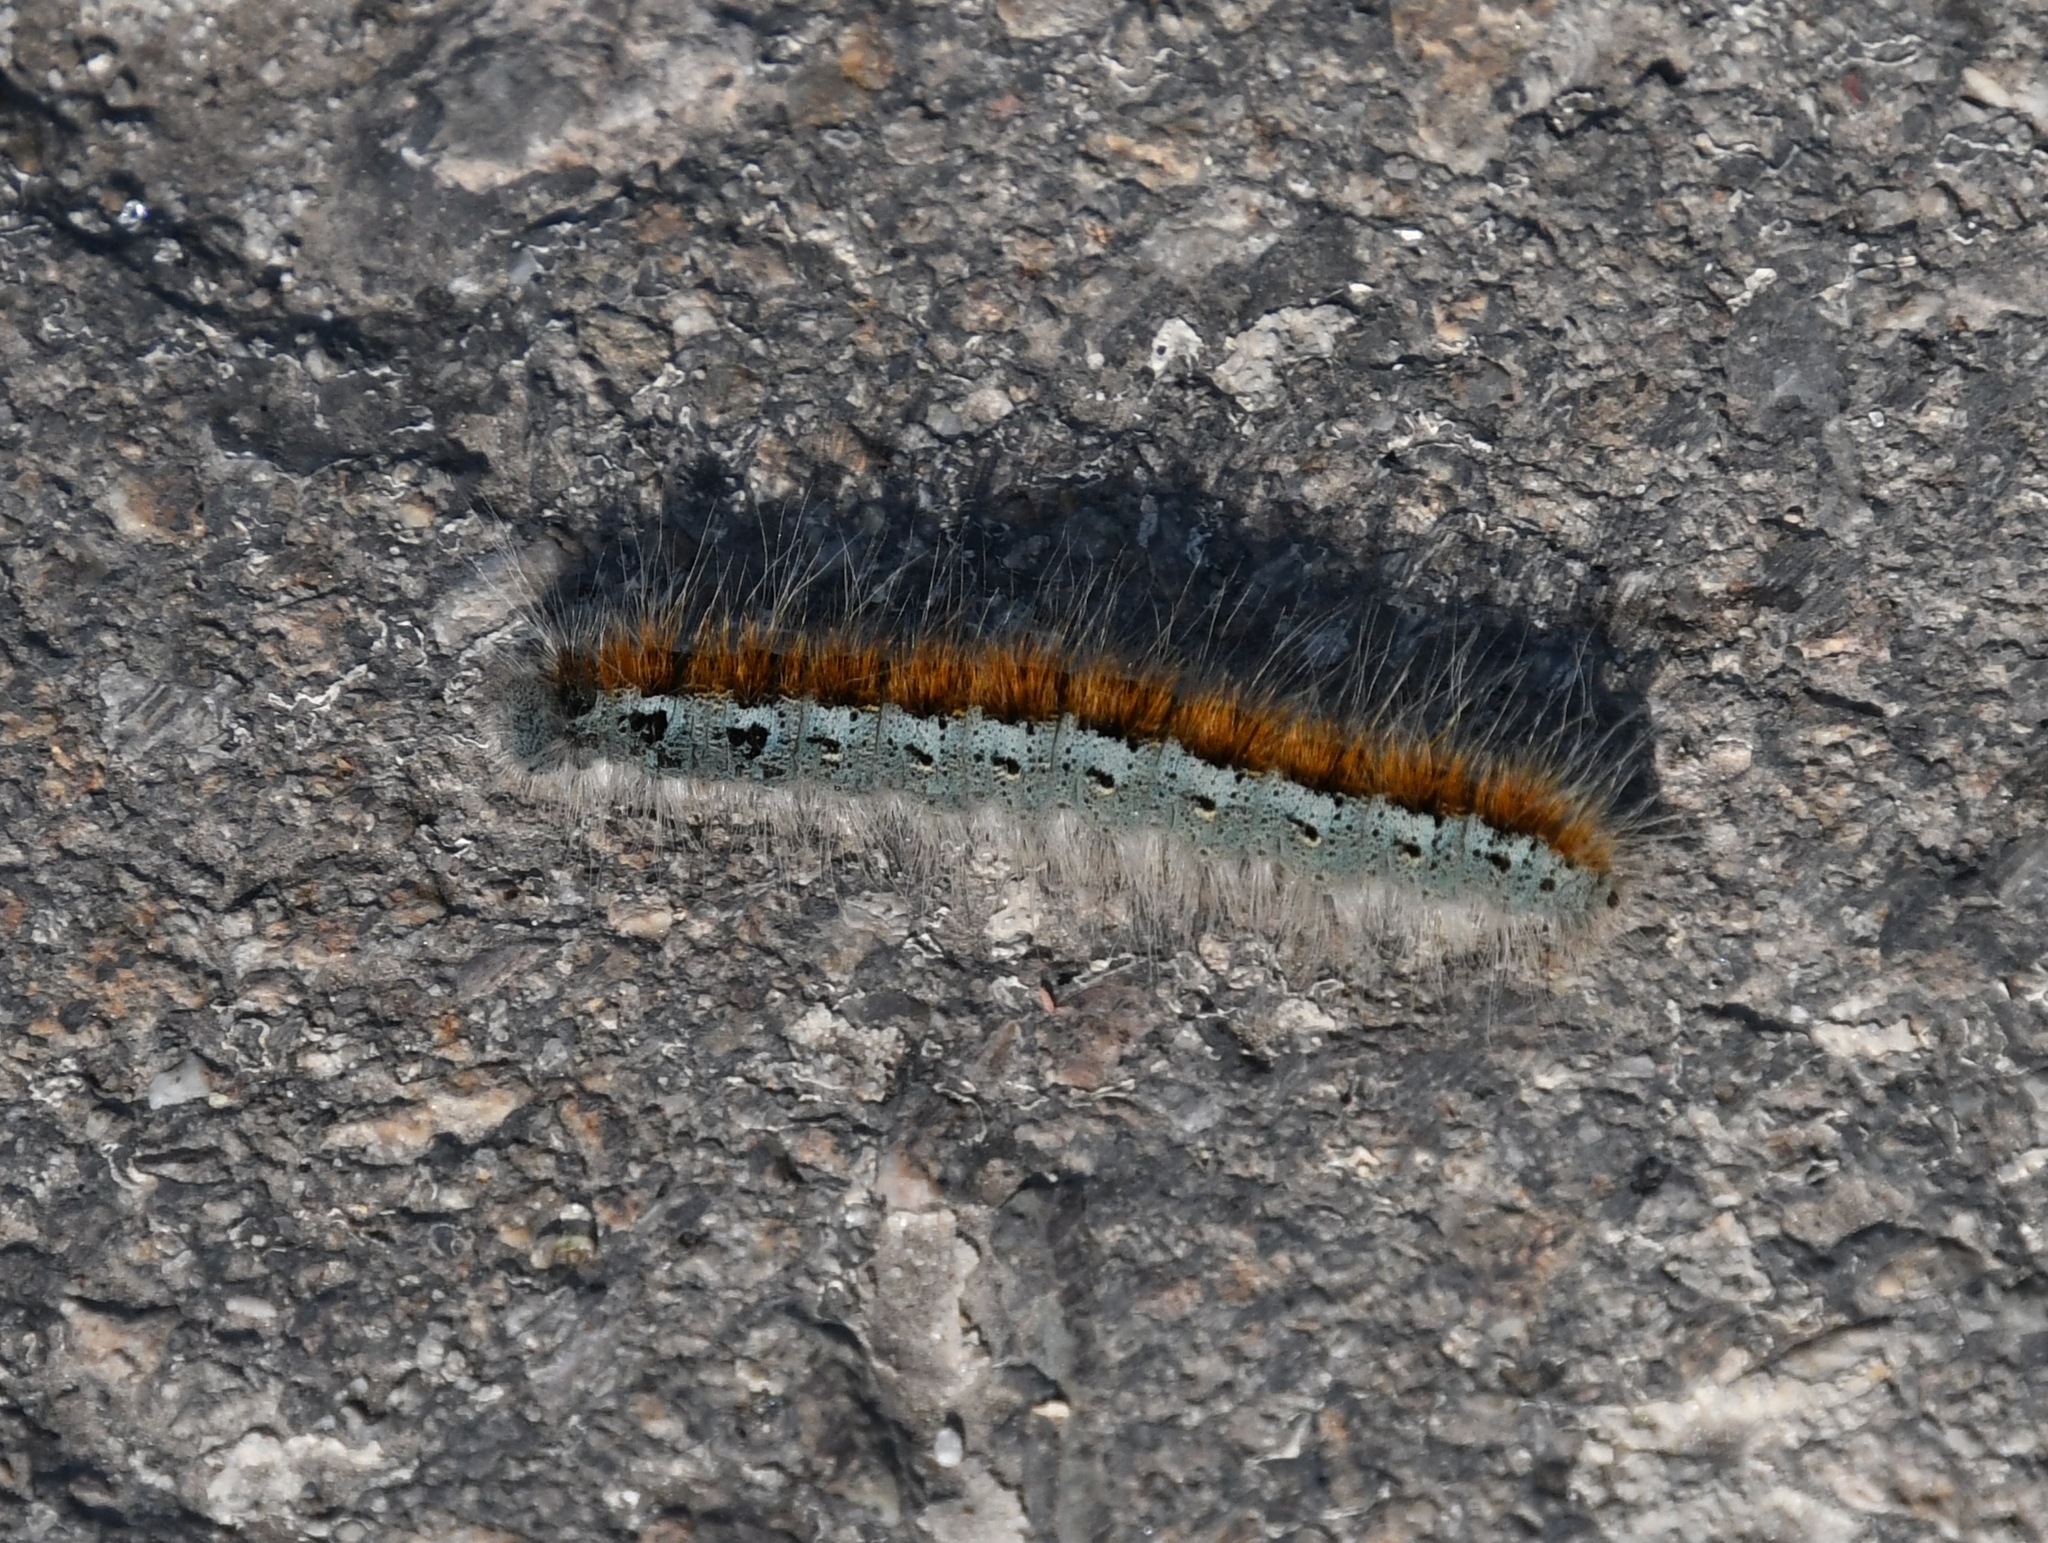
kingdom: Animalia
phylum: Arthropoda
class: Insecta
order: Lepidoptera
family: Lasiocampidae
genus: Malacosoma
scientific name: Malacosoma incurva
